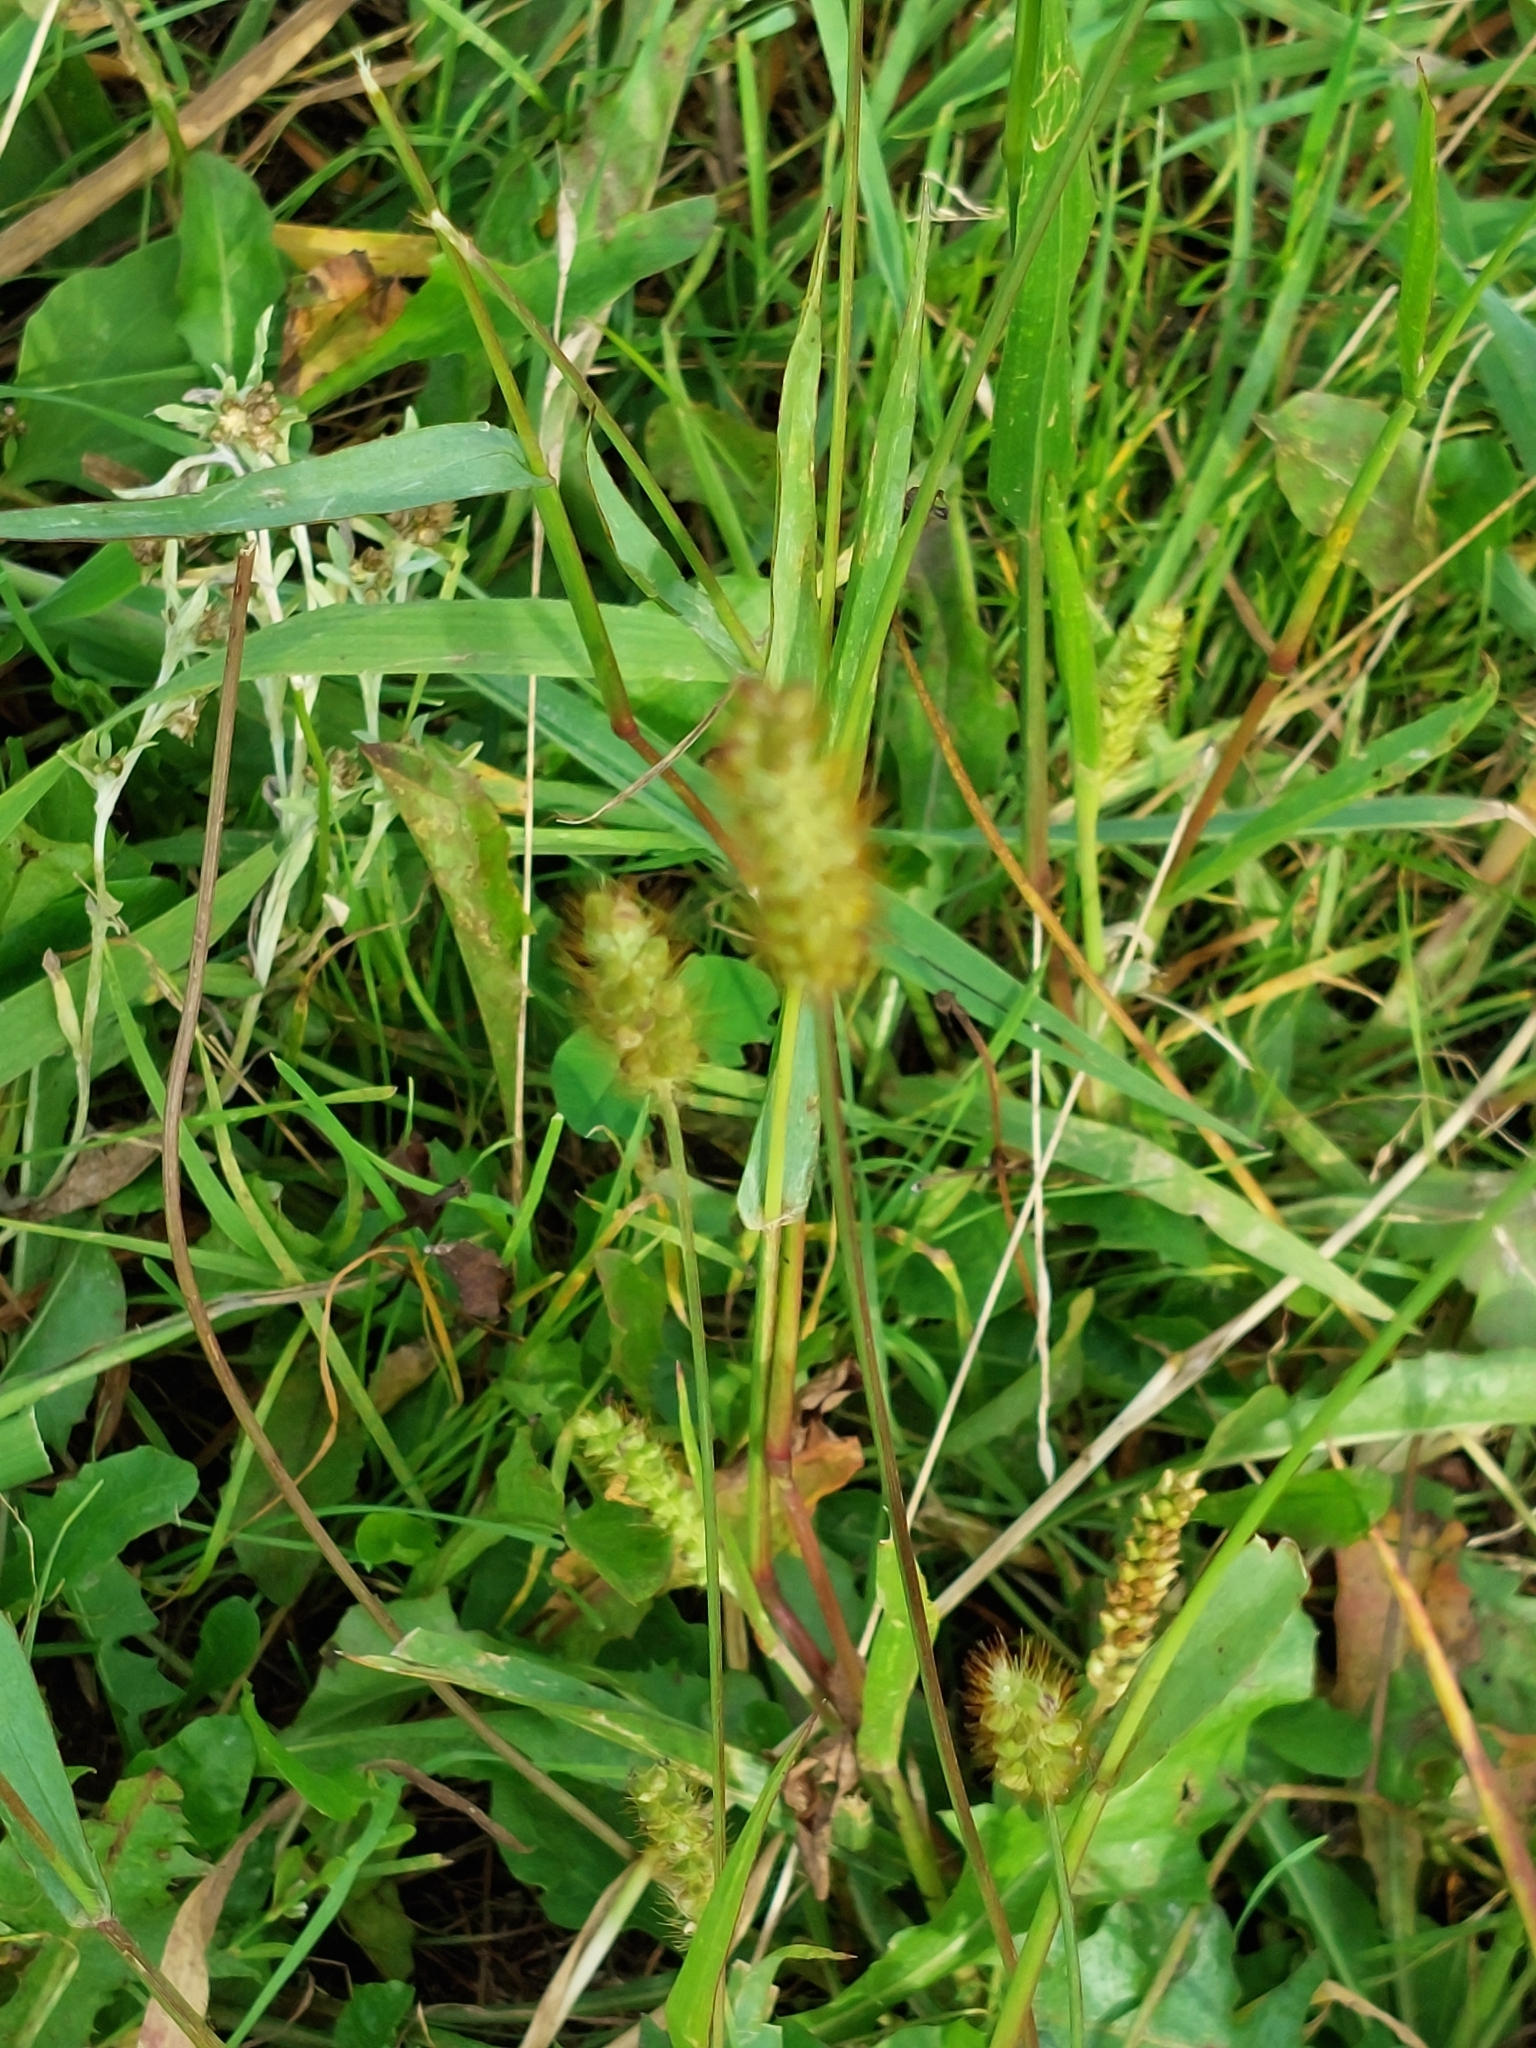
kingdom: Plantae
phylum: Tracheophyta
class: Liliopsida
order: Poales
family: Poaceae
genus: Setaria
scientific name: Setaria pumila
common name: Yellow bristle-grass
